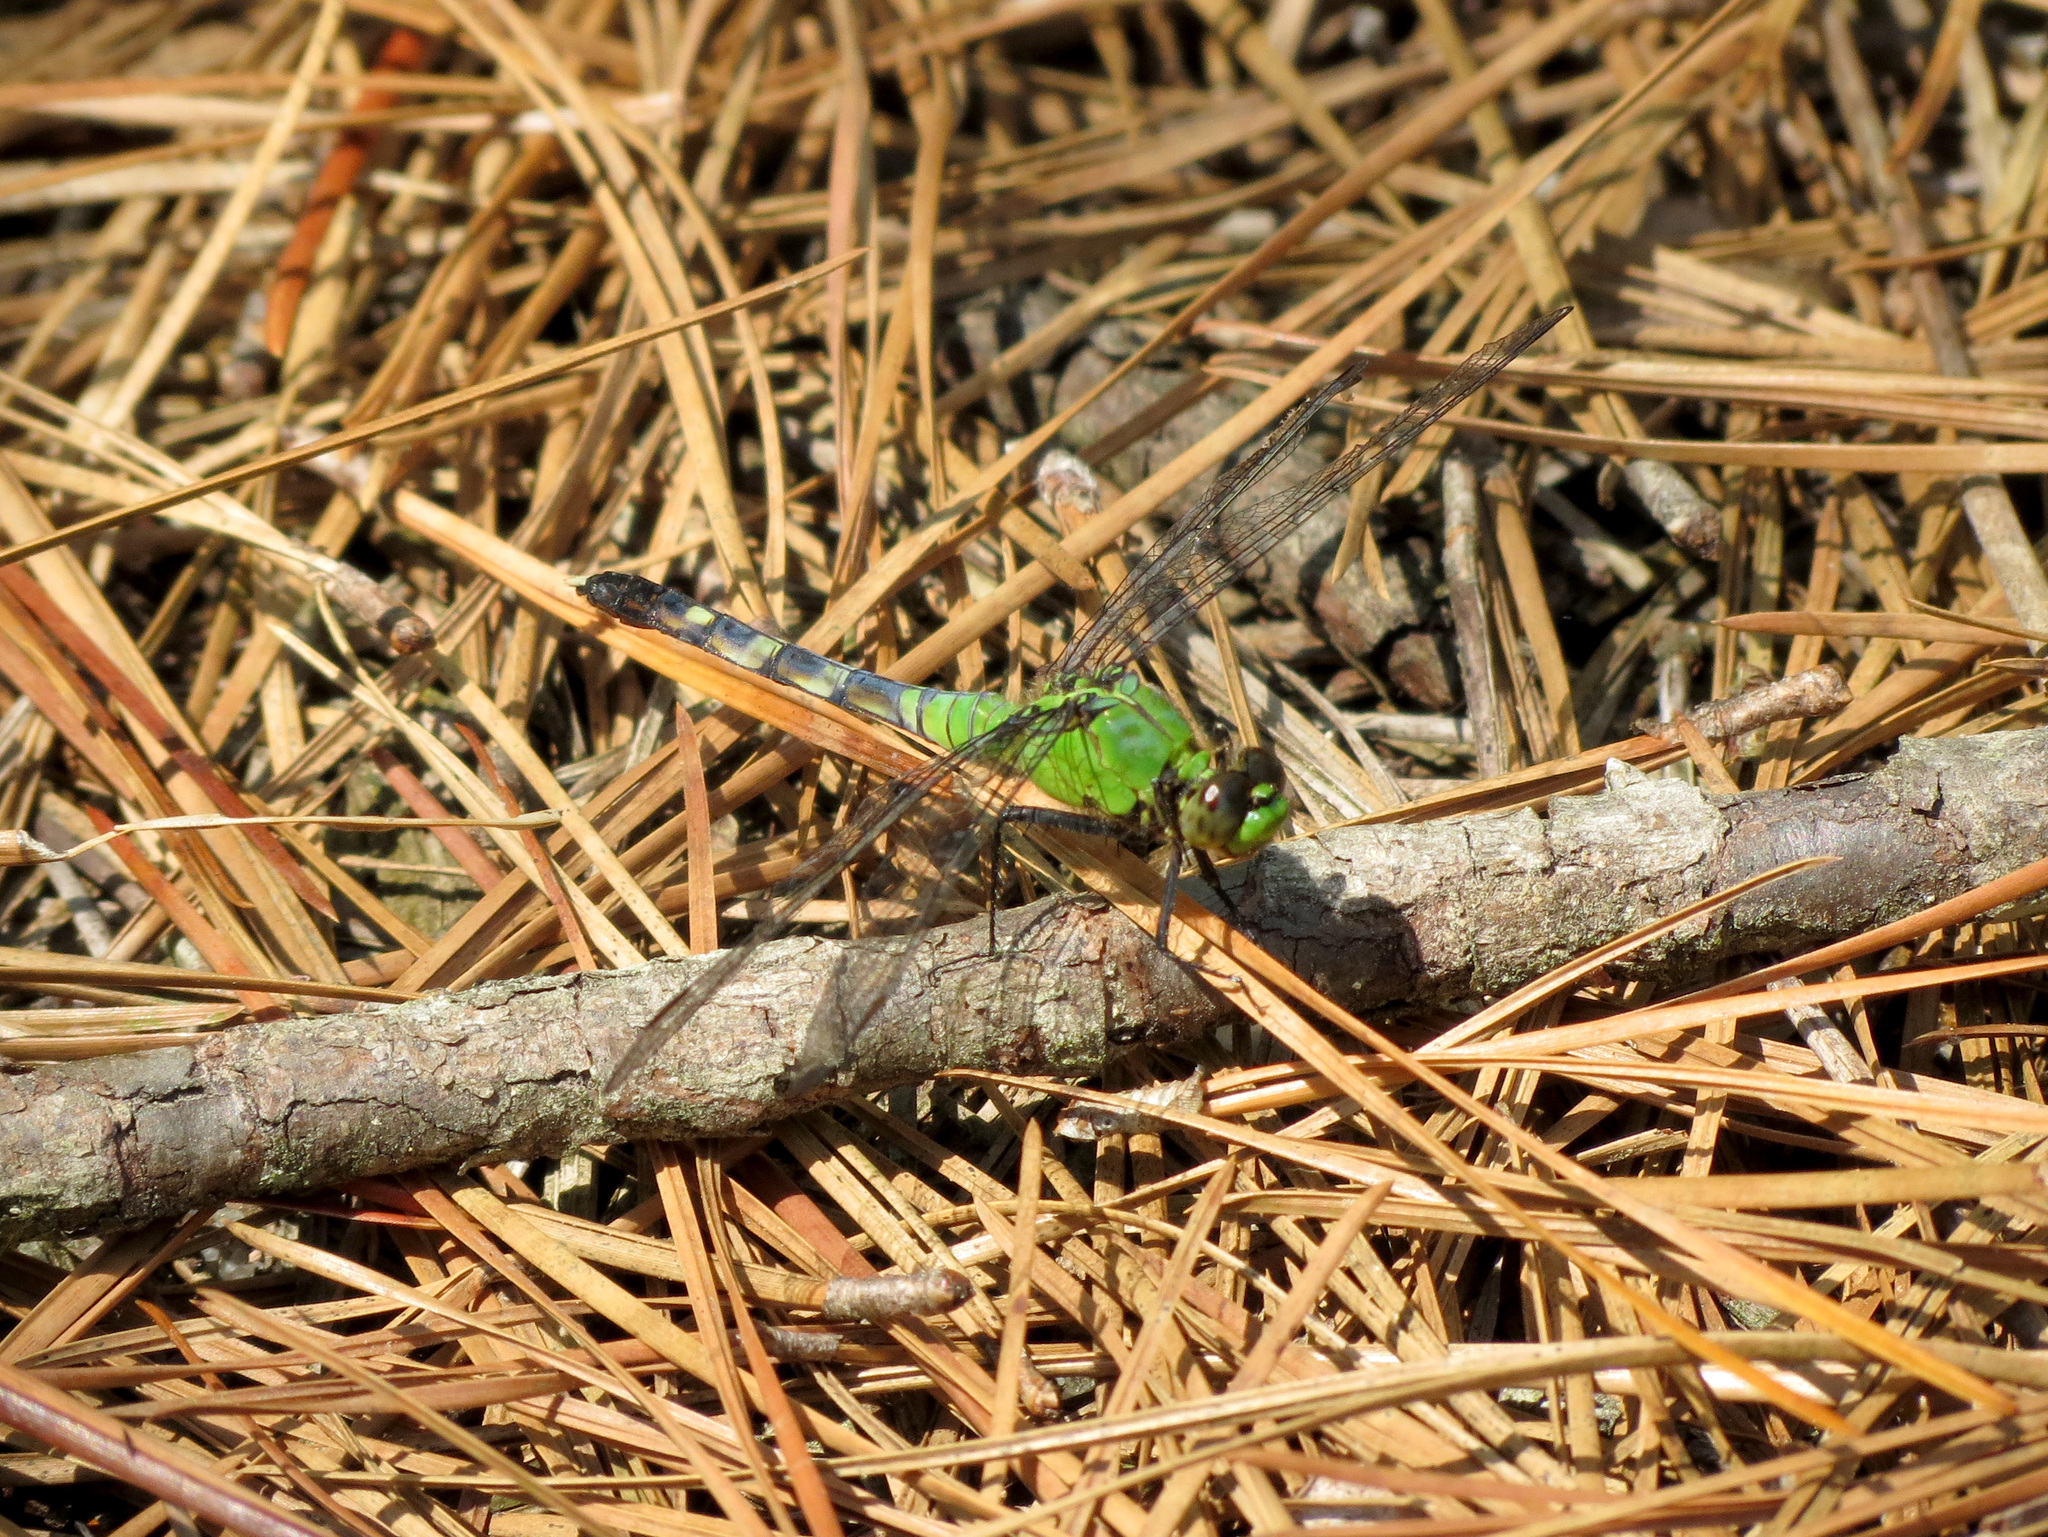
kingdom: Animalia
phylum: Arthropoda
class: Insecta
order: Odonata
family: Libellulidae
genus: Erythemis
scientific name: Erythemis simplicicollis
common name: Eastern pondhawk
